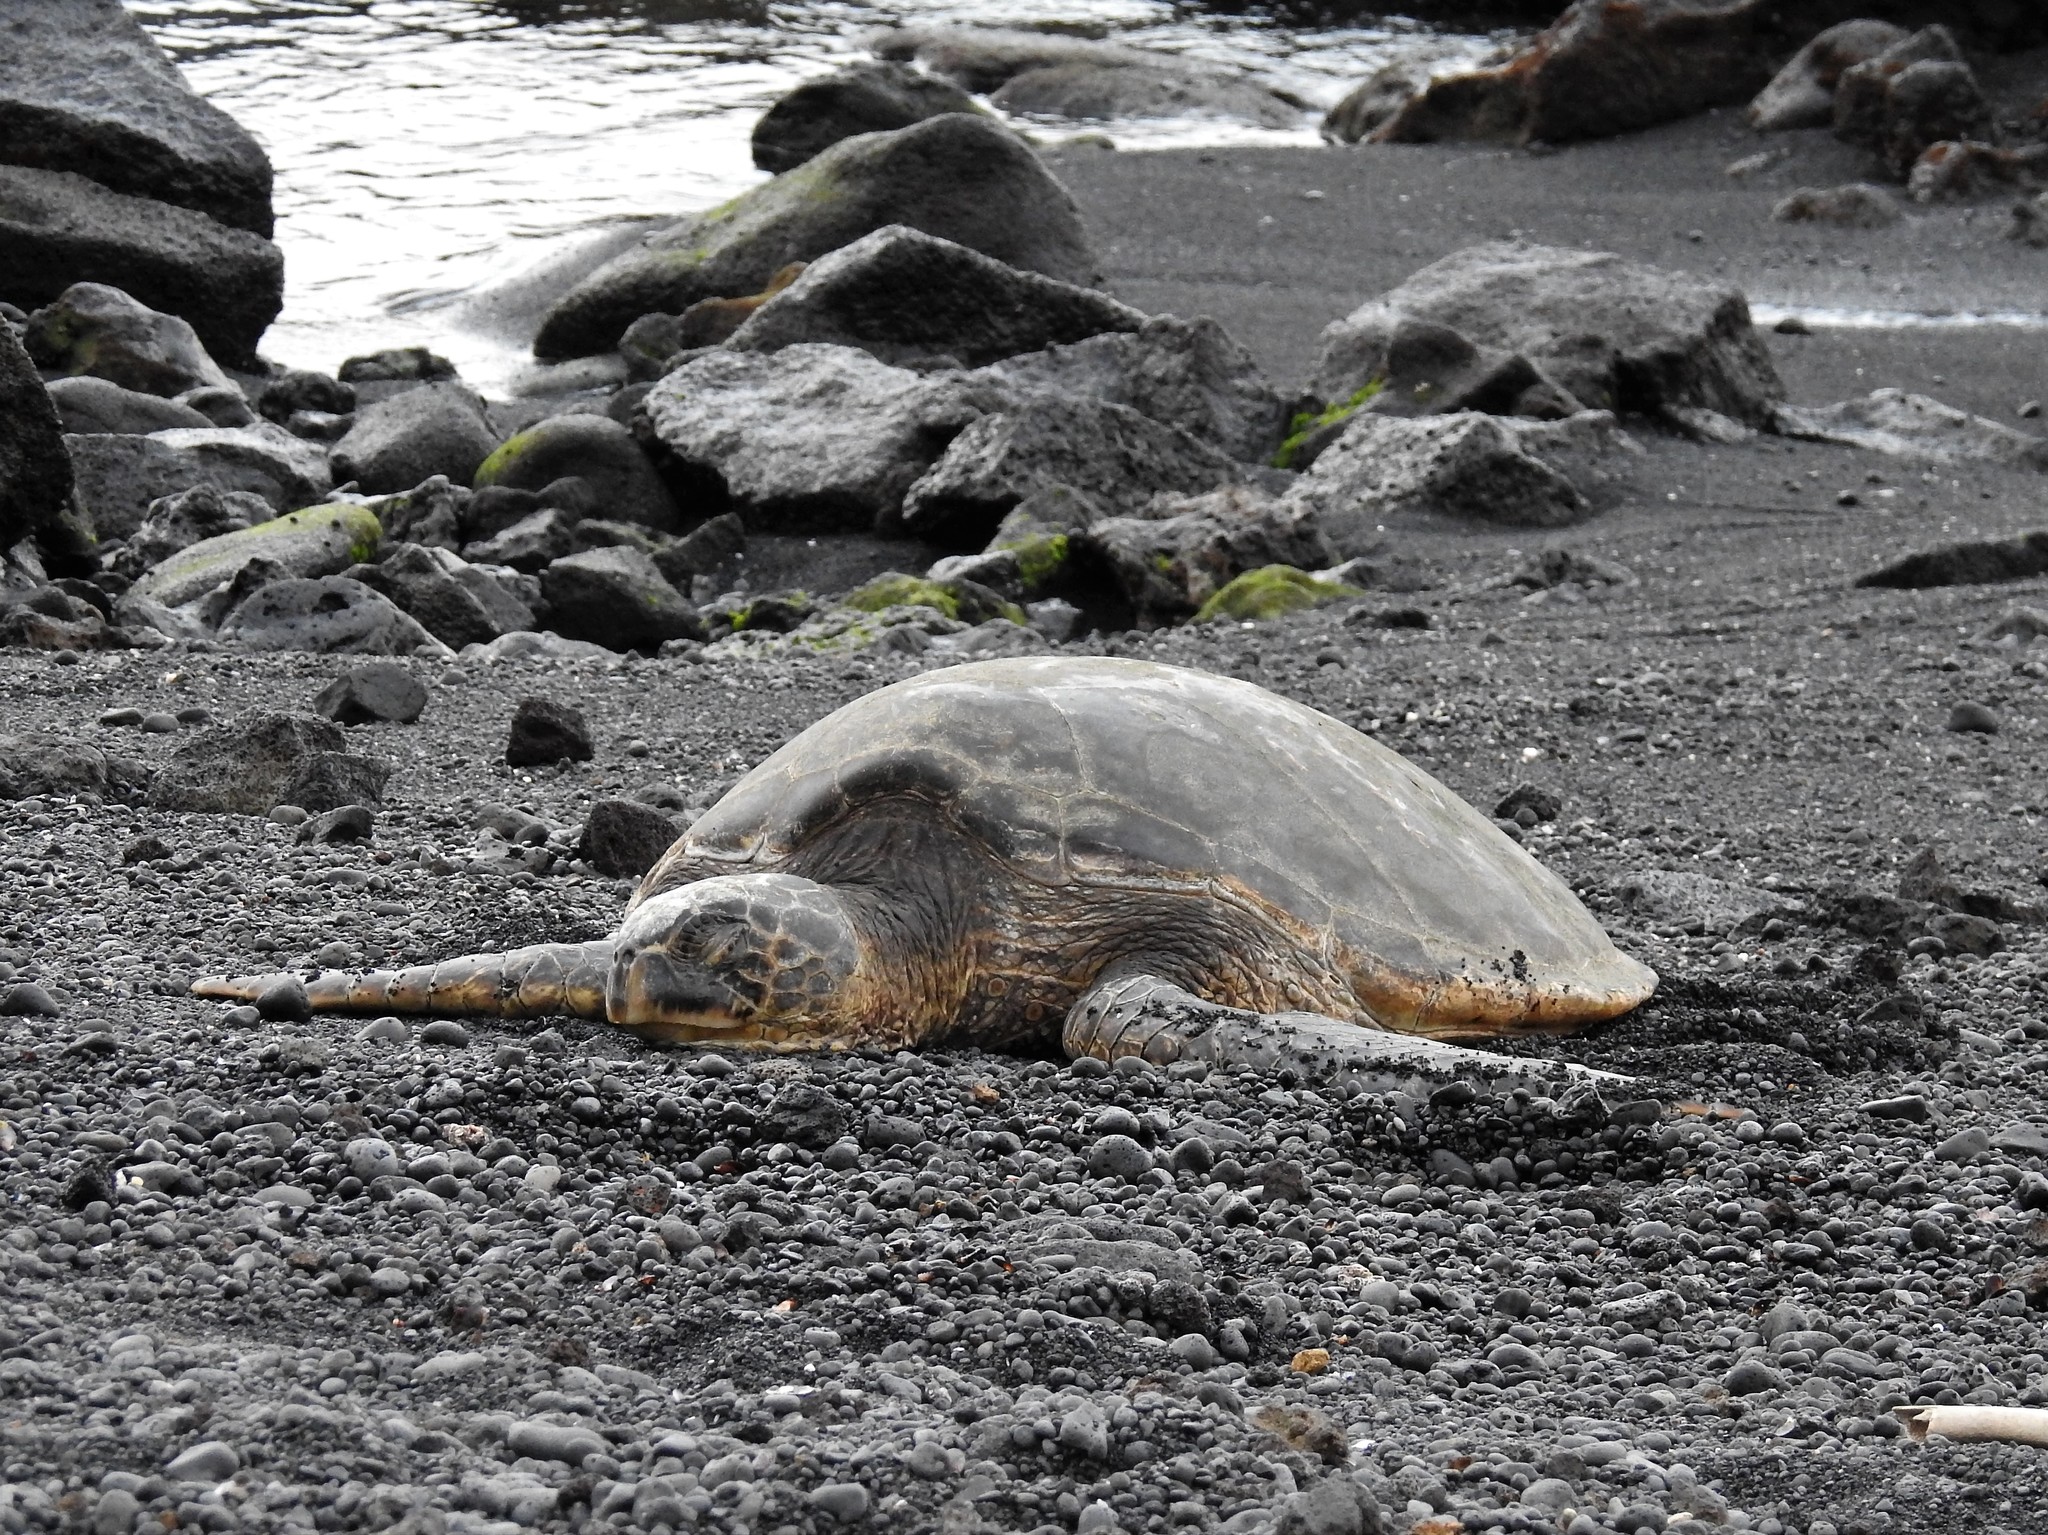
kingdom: Animalia
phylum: Chordata
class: Testudines
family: Cheloniidae
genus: Chelonia
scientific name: Chelonia mydas
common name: Green turtle
